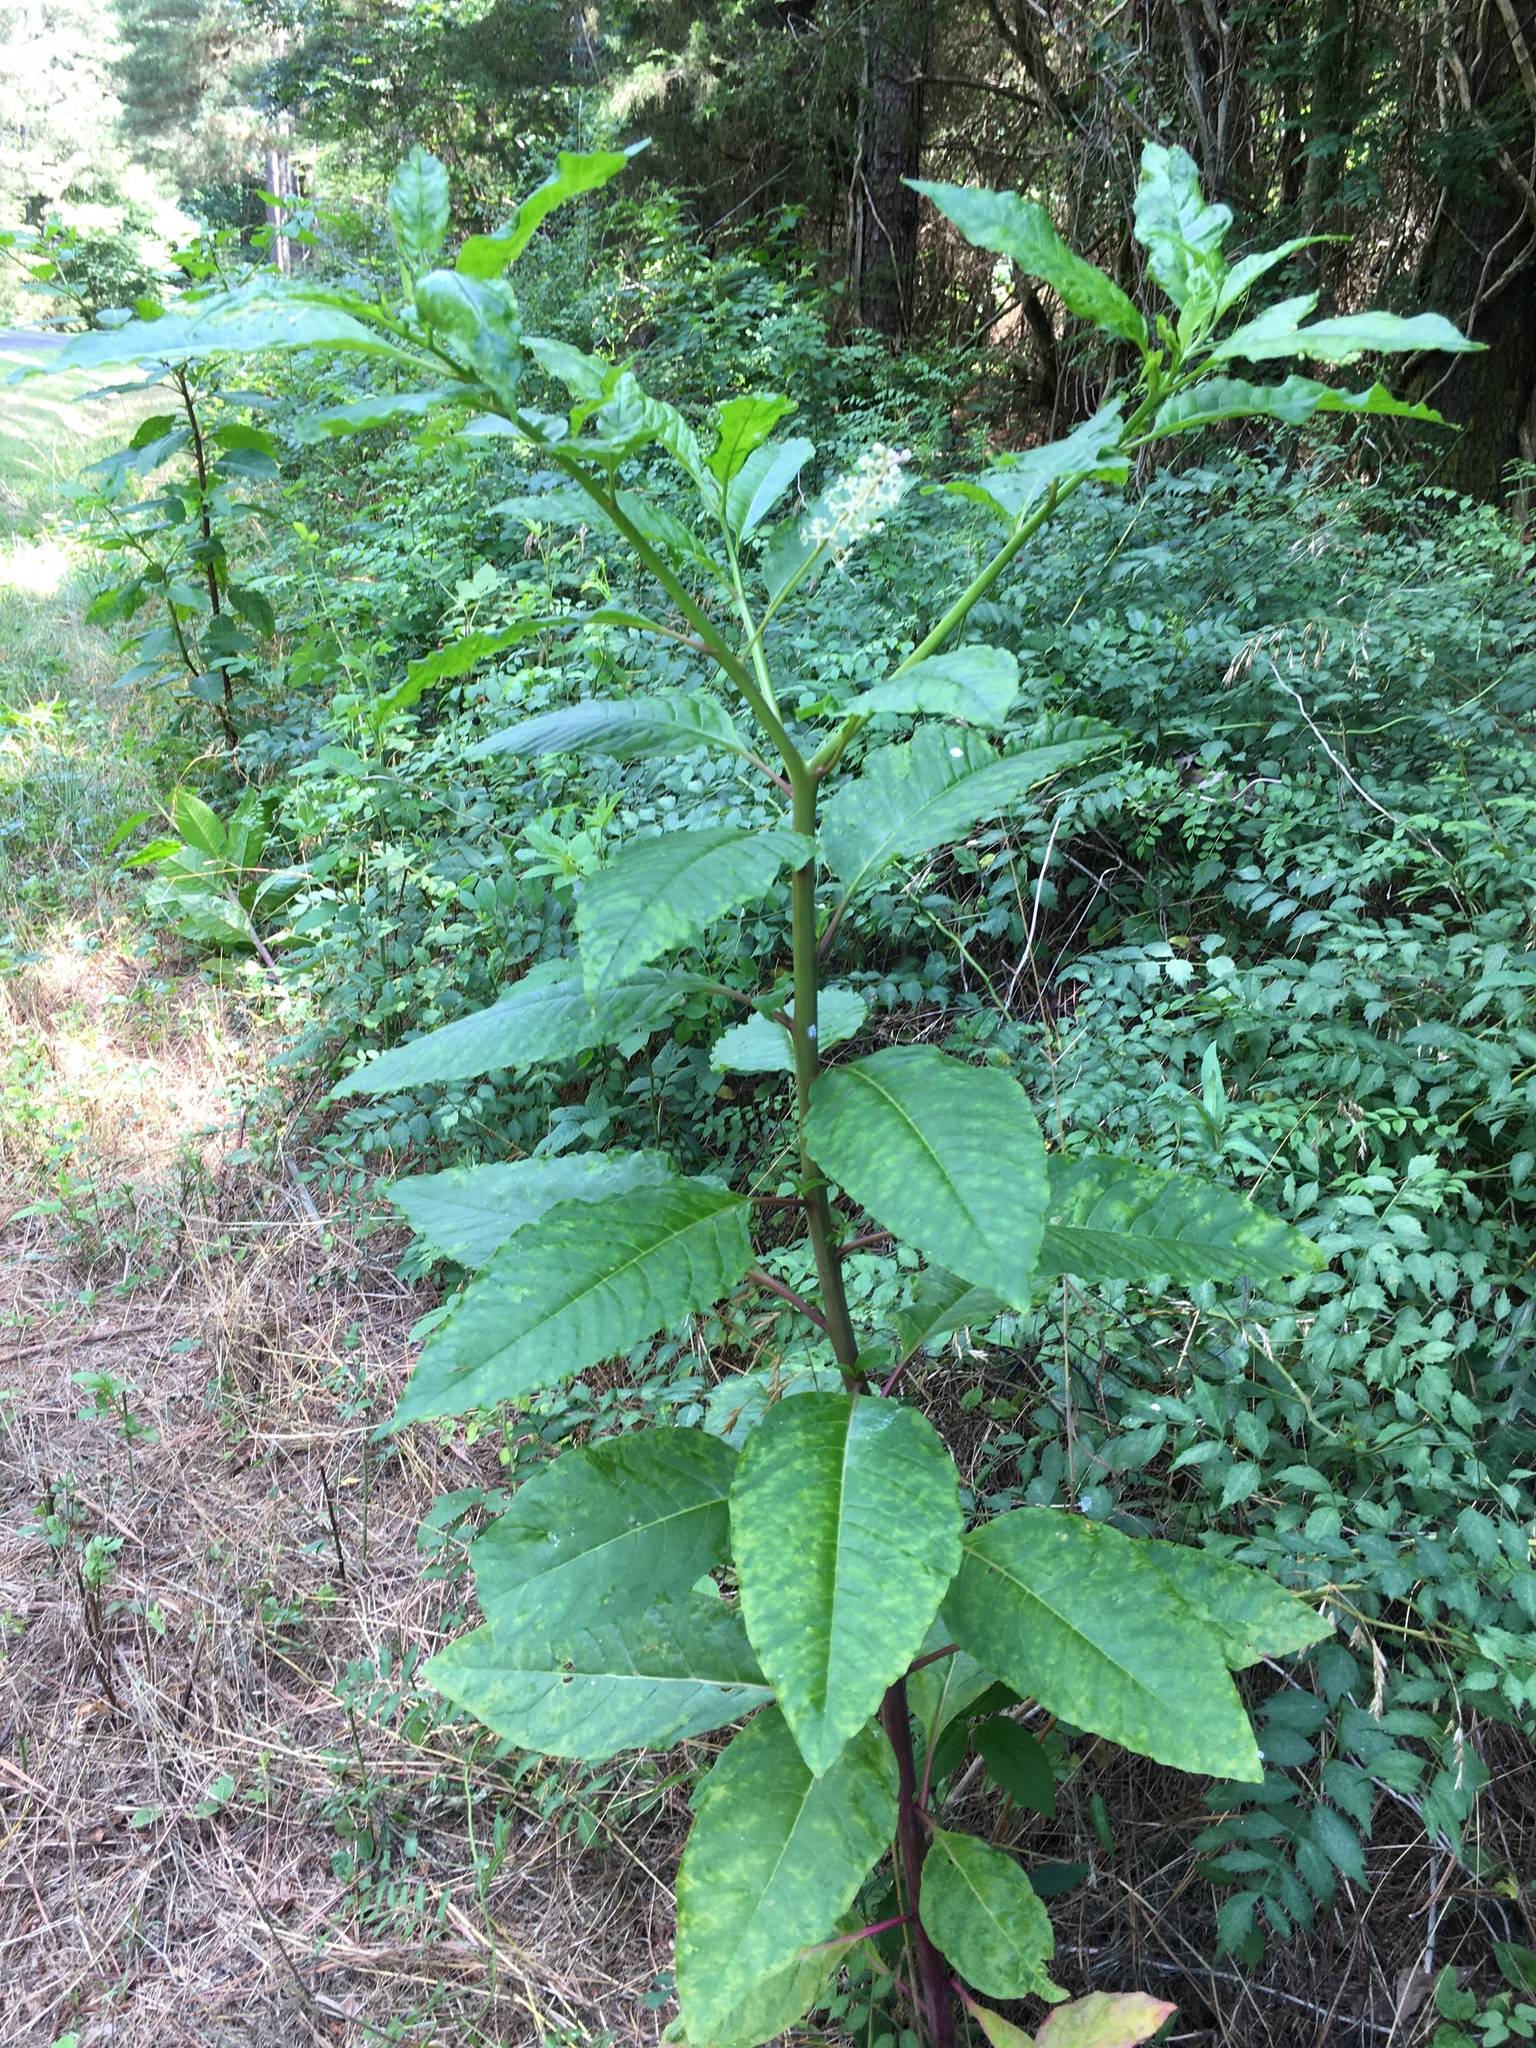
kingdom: Plantae
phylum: Tracheophyta
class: Magnoliopsida
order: Caryophyllales
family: Phytolaccaceae
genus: Phytolacca
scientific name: Phytolacca americana
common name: American pokeweed
